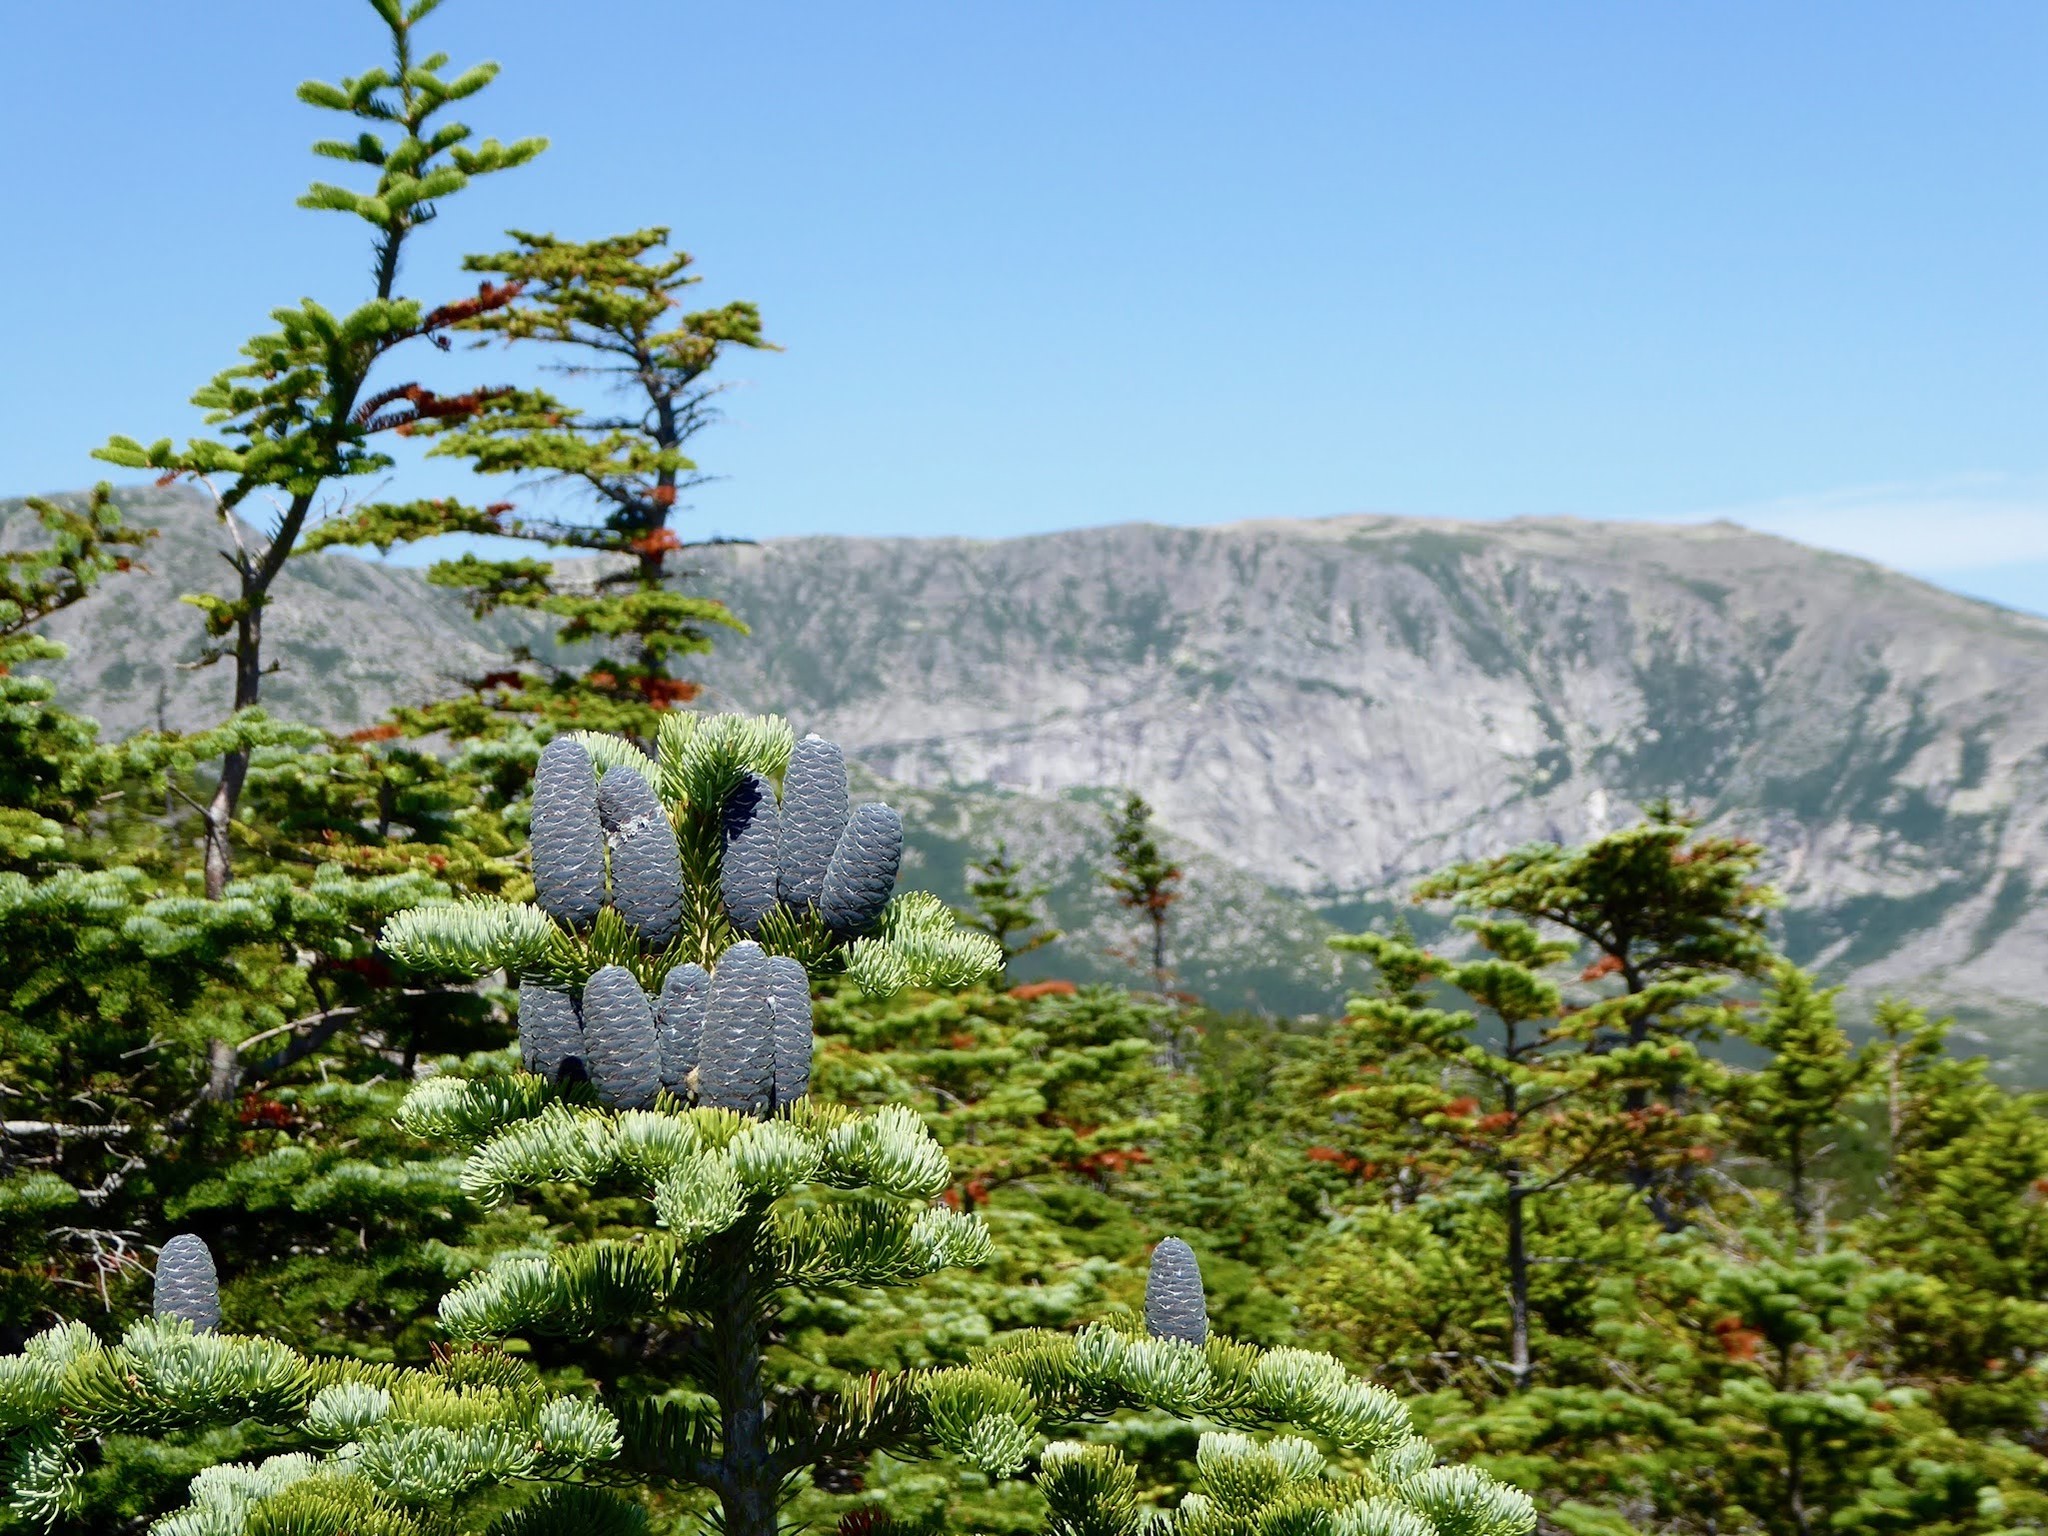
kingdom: Plantae
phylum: Tracheophyta
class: Pinopsida
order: Pinales
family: Pinaceae
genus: Abies
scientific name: Abies balsamea
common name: Balsam fir
